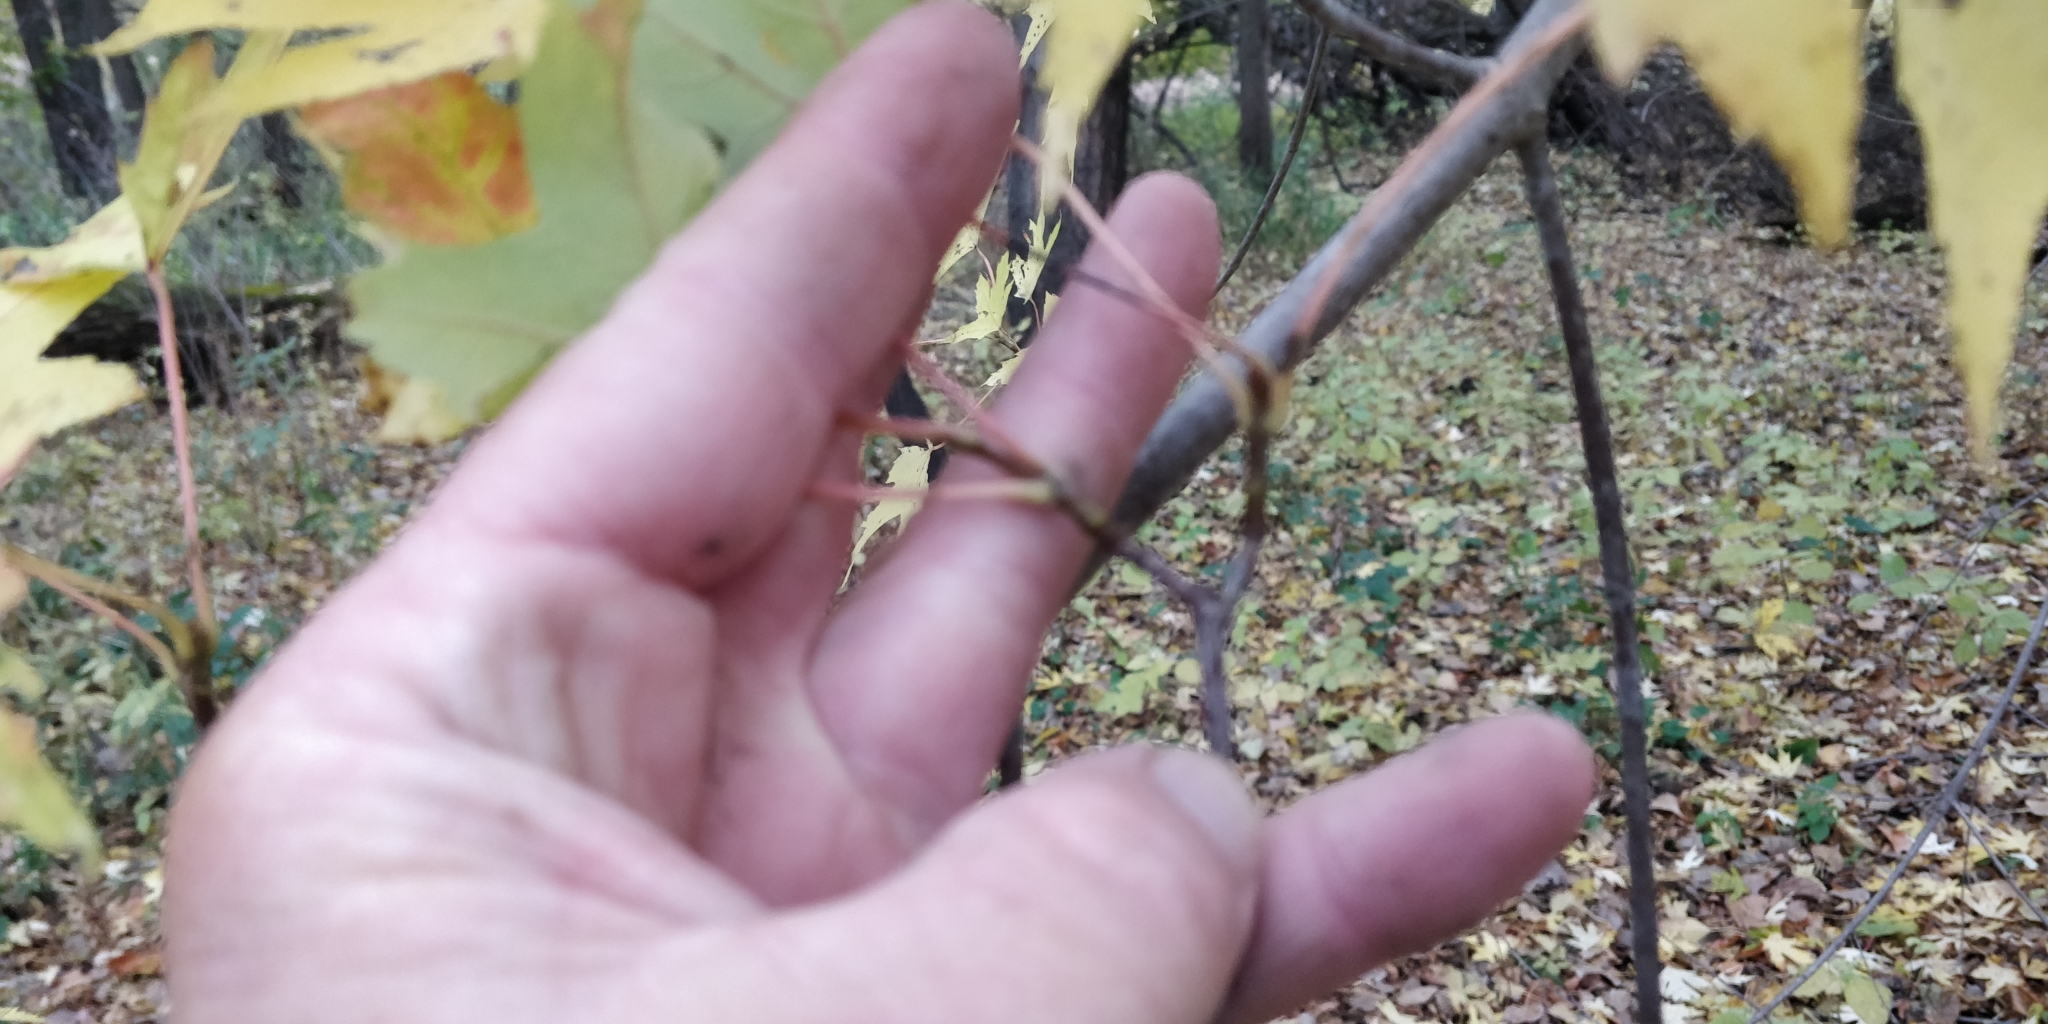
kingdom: Plantae
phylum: Tracheophyta
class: Magnoliopsida
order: Sapindales
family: Sapindaceae
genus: Acer
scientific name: Acer saccharinum
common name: Silver maple
